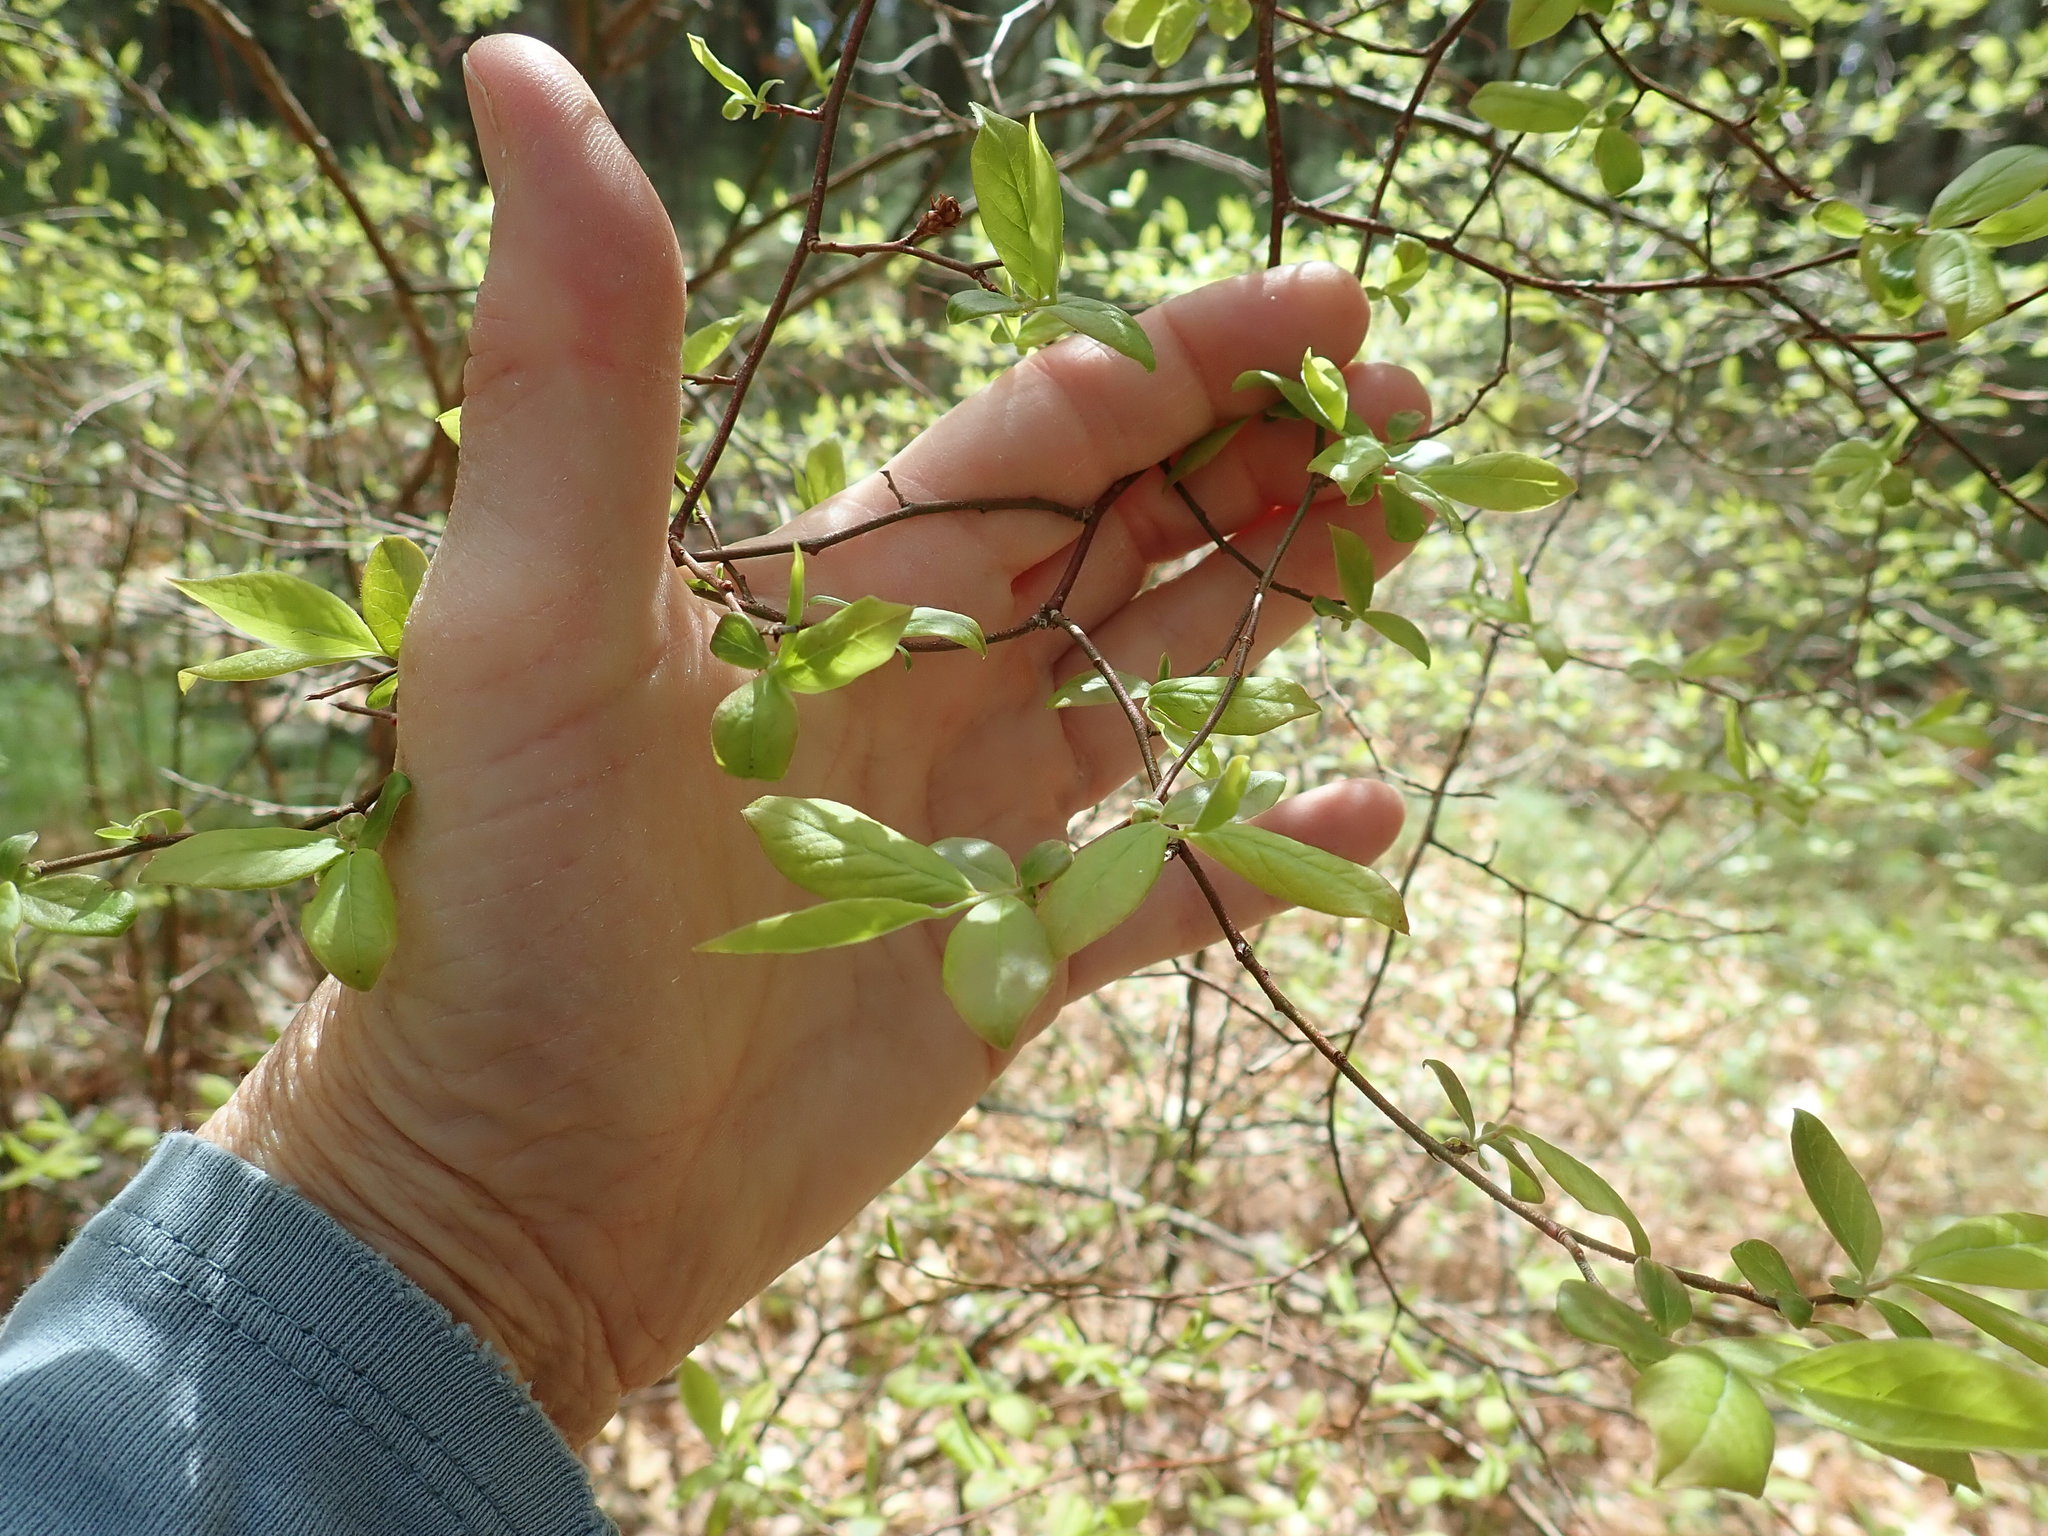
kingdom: Plantae
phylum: Tracheophyta
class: Magnoliopsida
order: Ericales
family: Ericaceae
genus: Vaccinium
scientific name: Vaccinium corymbosum
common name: Blueberry
